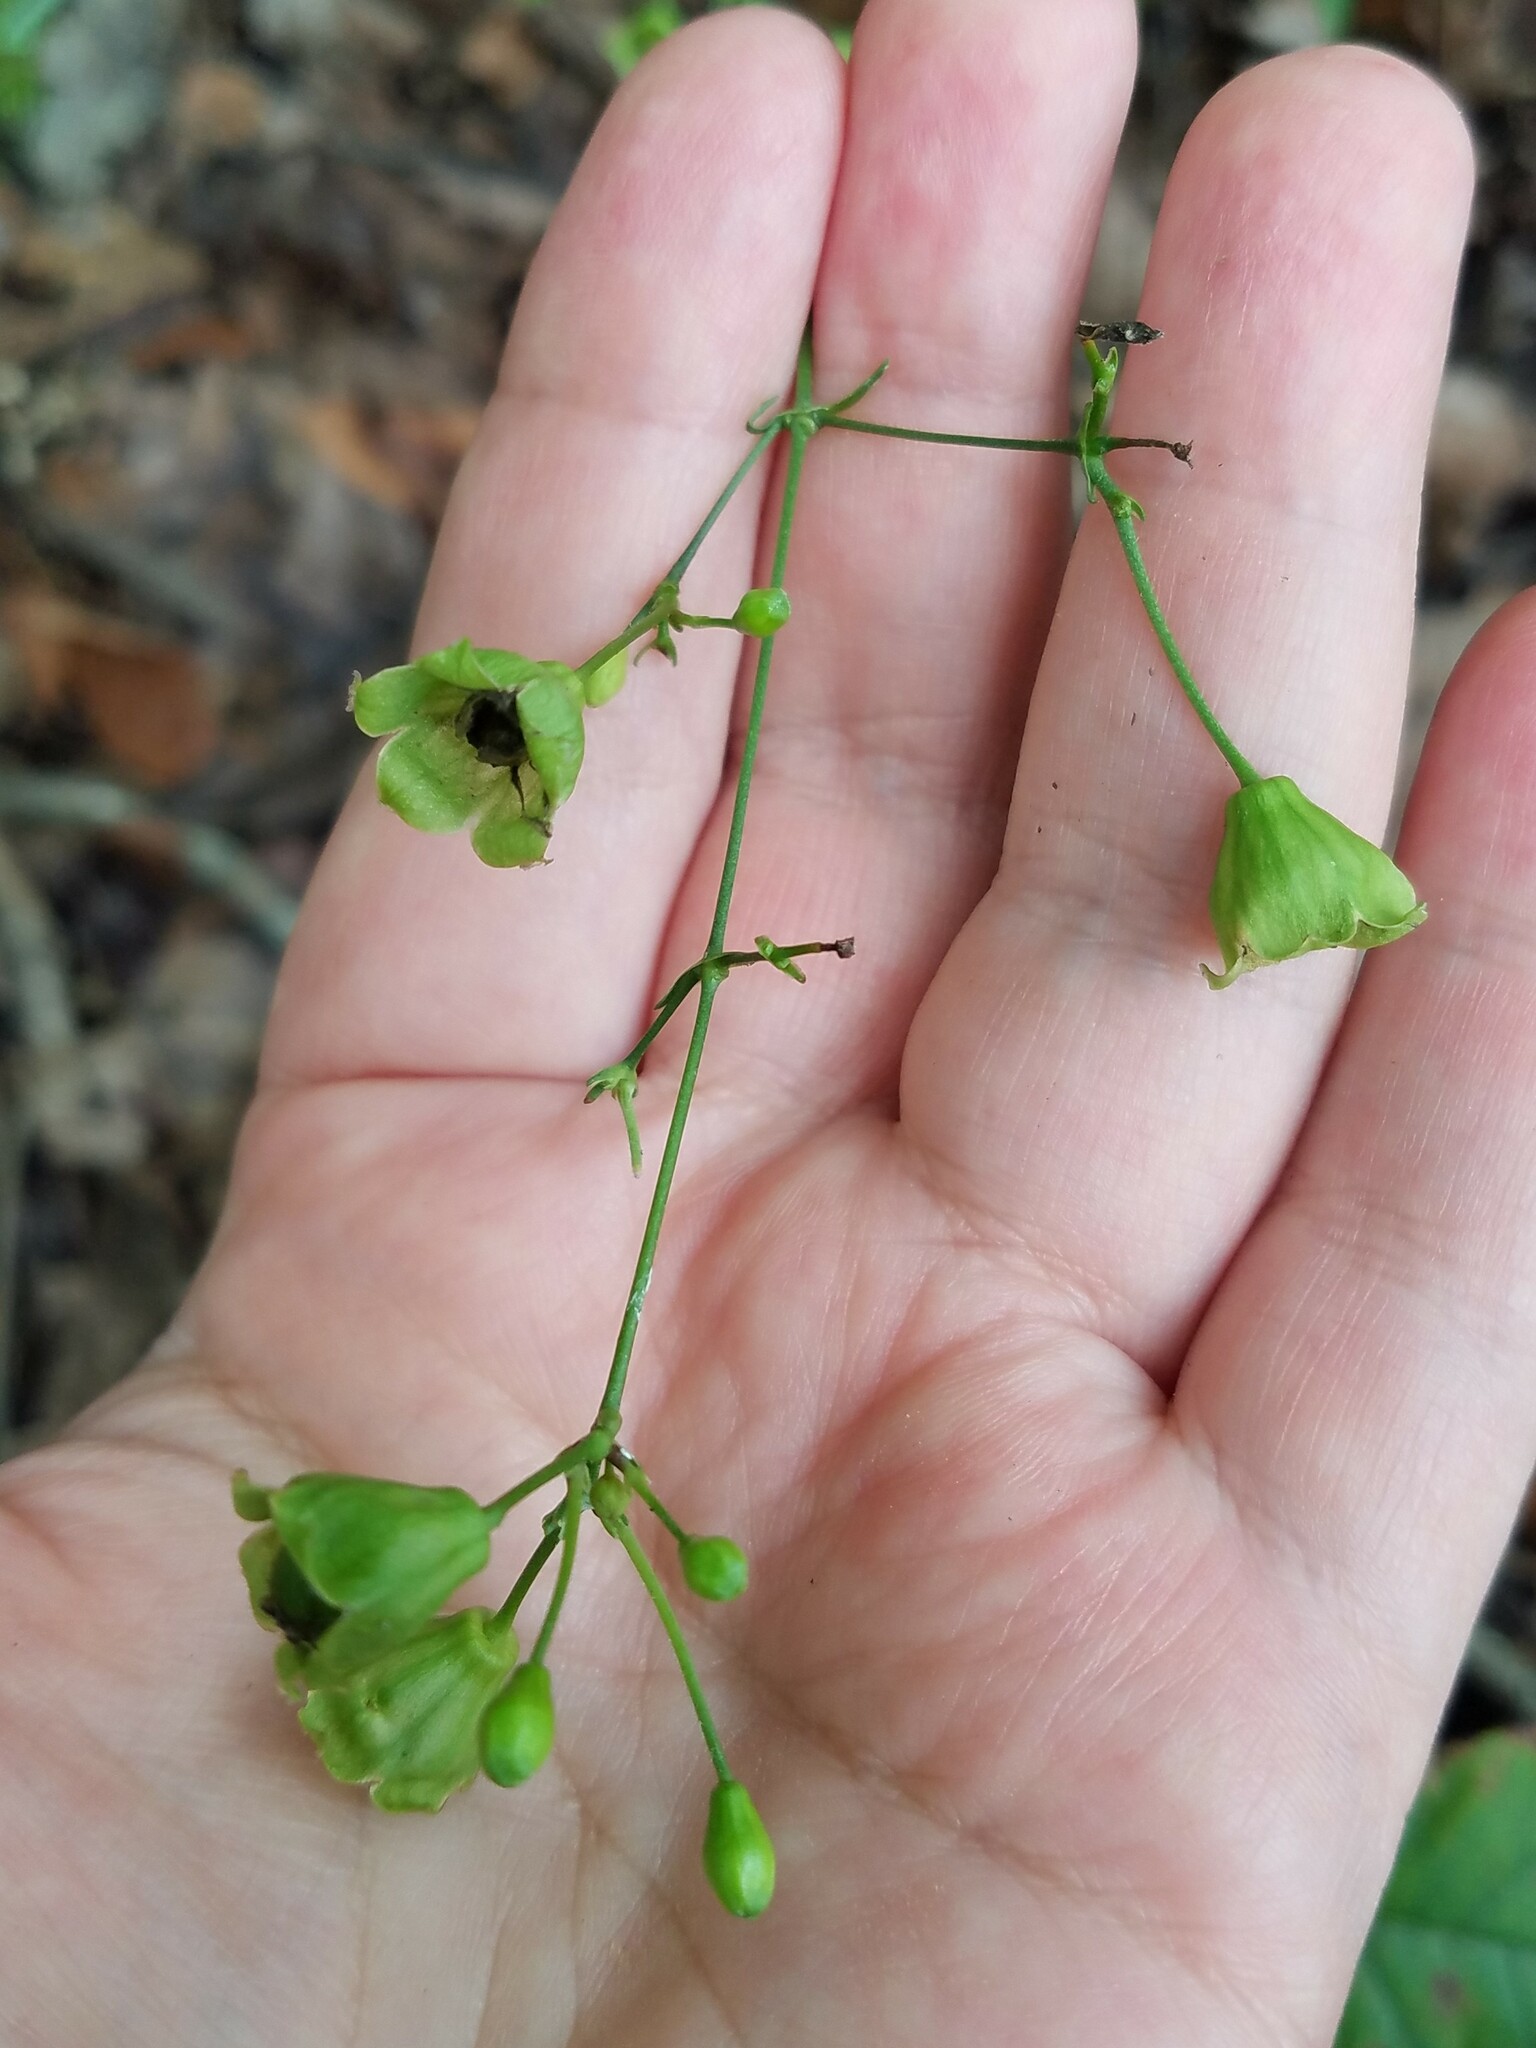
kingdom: Plantae
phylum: Tracheophyta
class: Magnoliopsida
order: Caryophyllales
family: Caryophyllaceae
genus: Silene
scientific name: Silene stellata
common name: Starry campion
